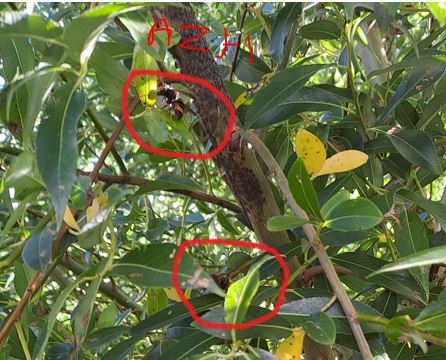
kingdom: Animalia
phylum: Arthropoda
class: Insecta
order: Hymenoptera
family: Vespidae
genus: Vespa
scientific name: Vespa velutina
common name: Asian hornet
